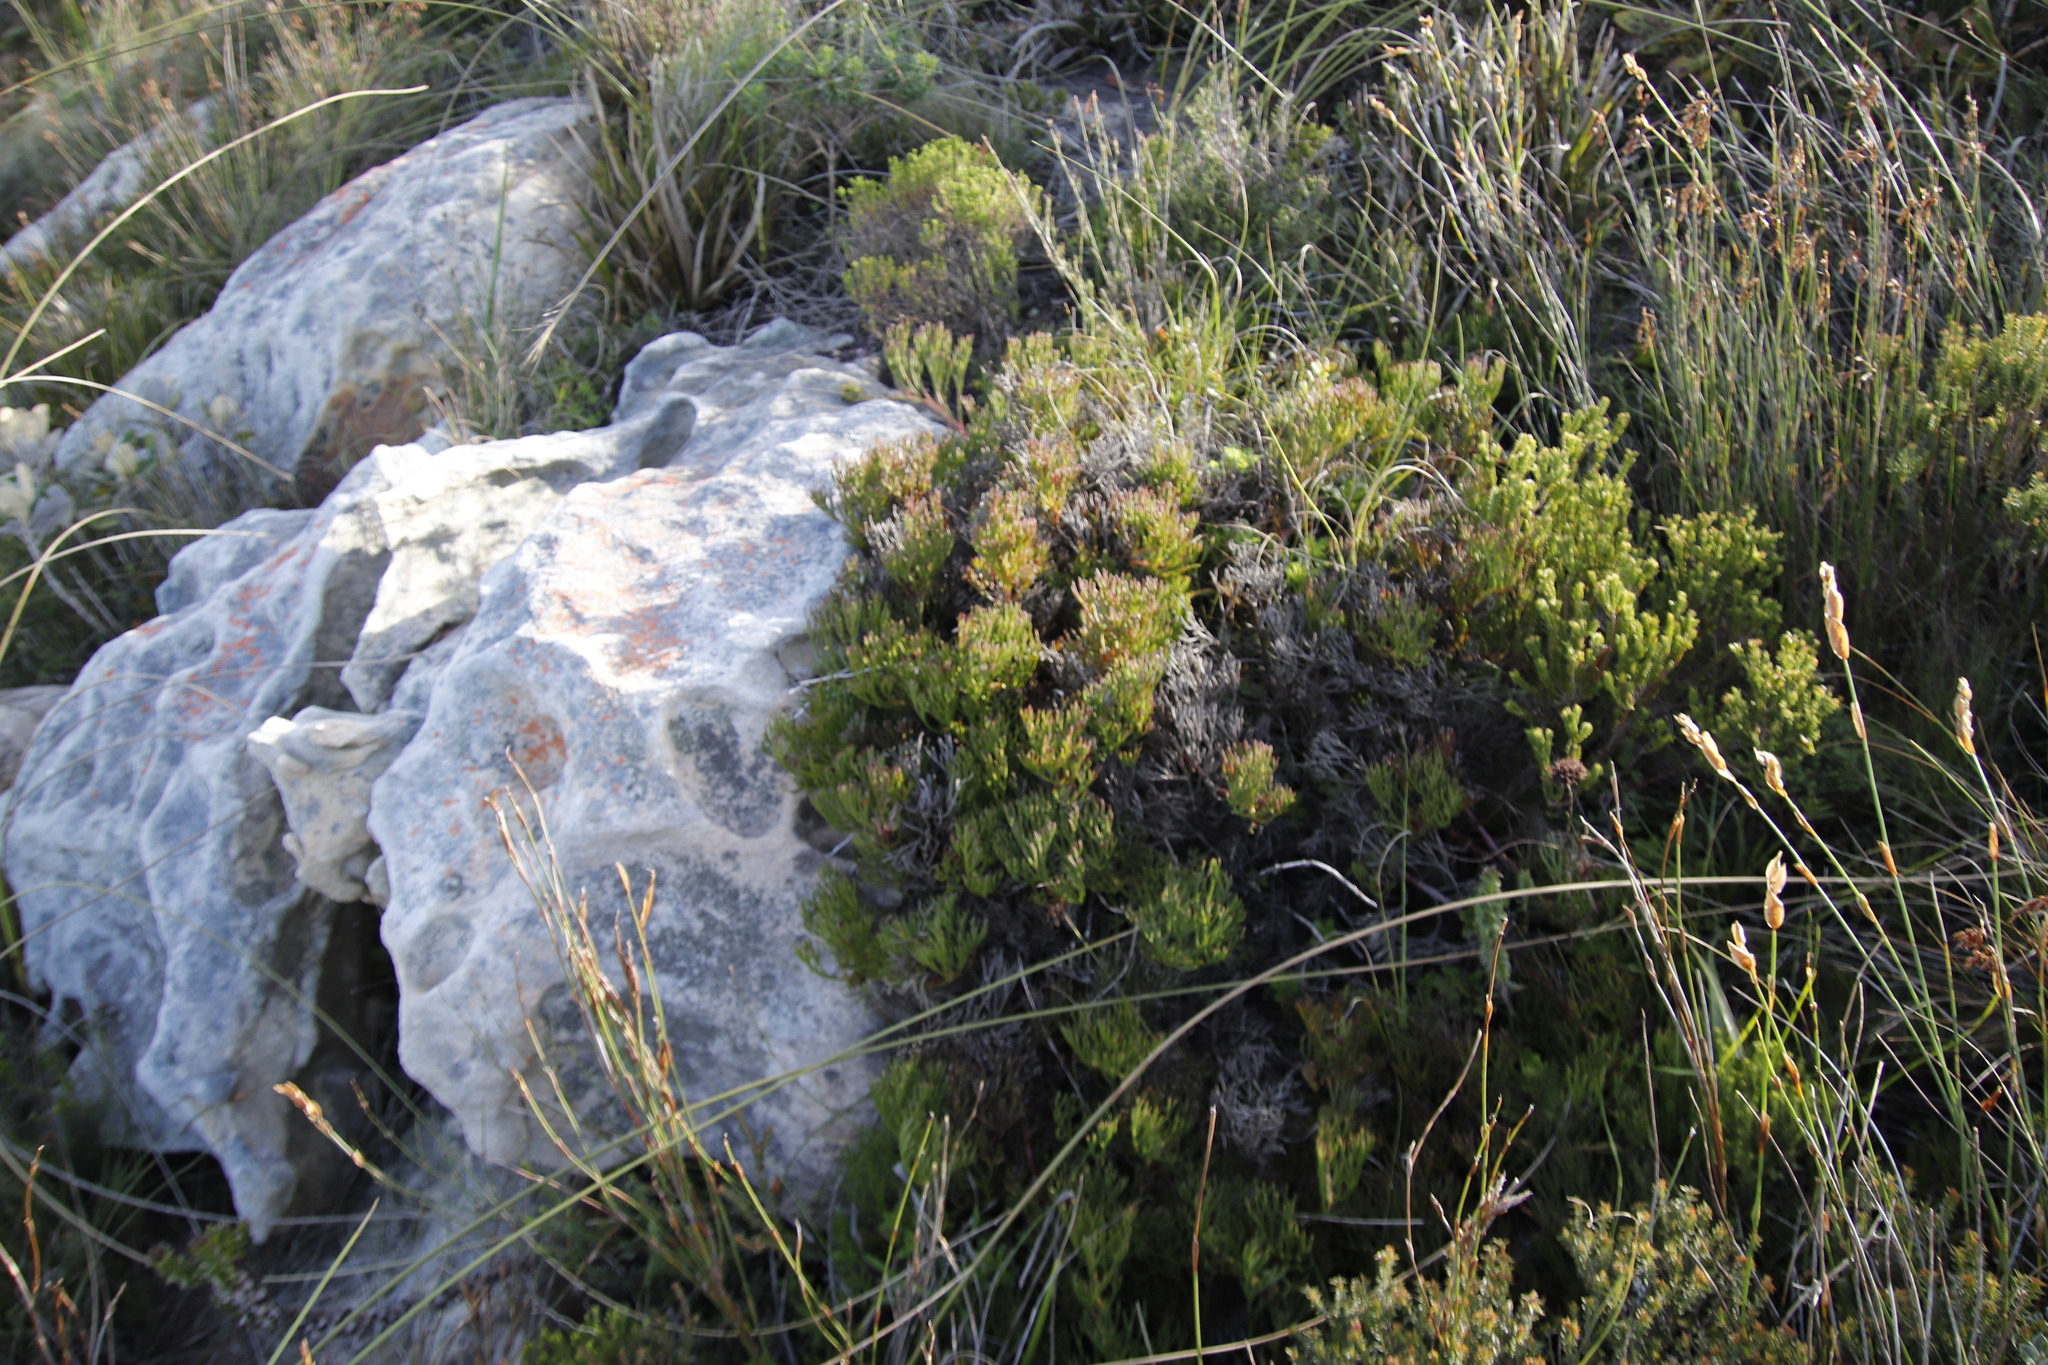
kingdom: Plantae
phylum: Tracheophyta
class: Magnoliopsida
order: Proteales
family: Proteaceae
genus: Serruria
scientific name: Serruria collina
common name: Lost spiderhead
